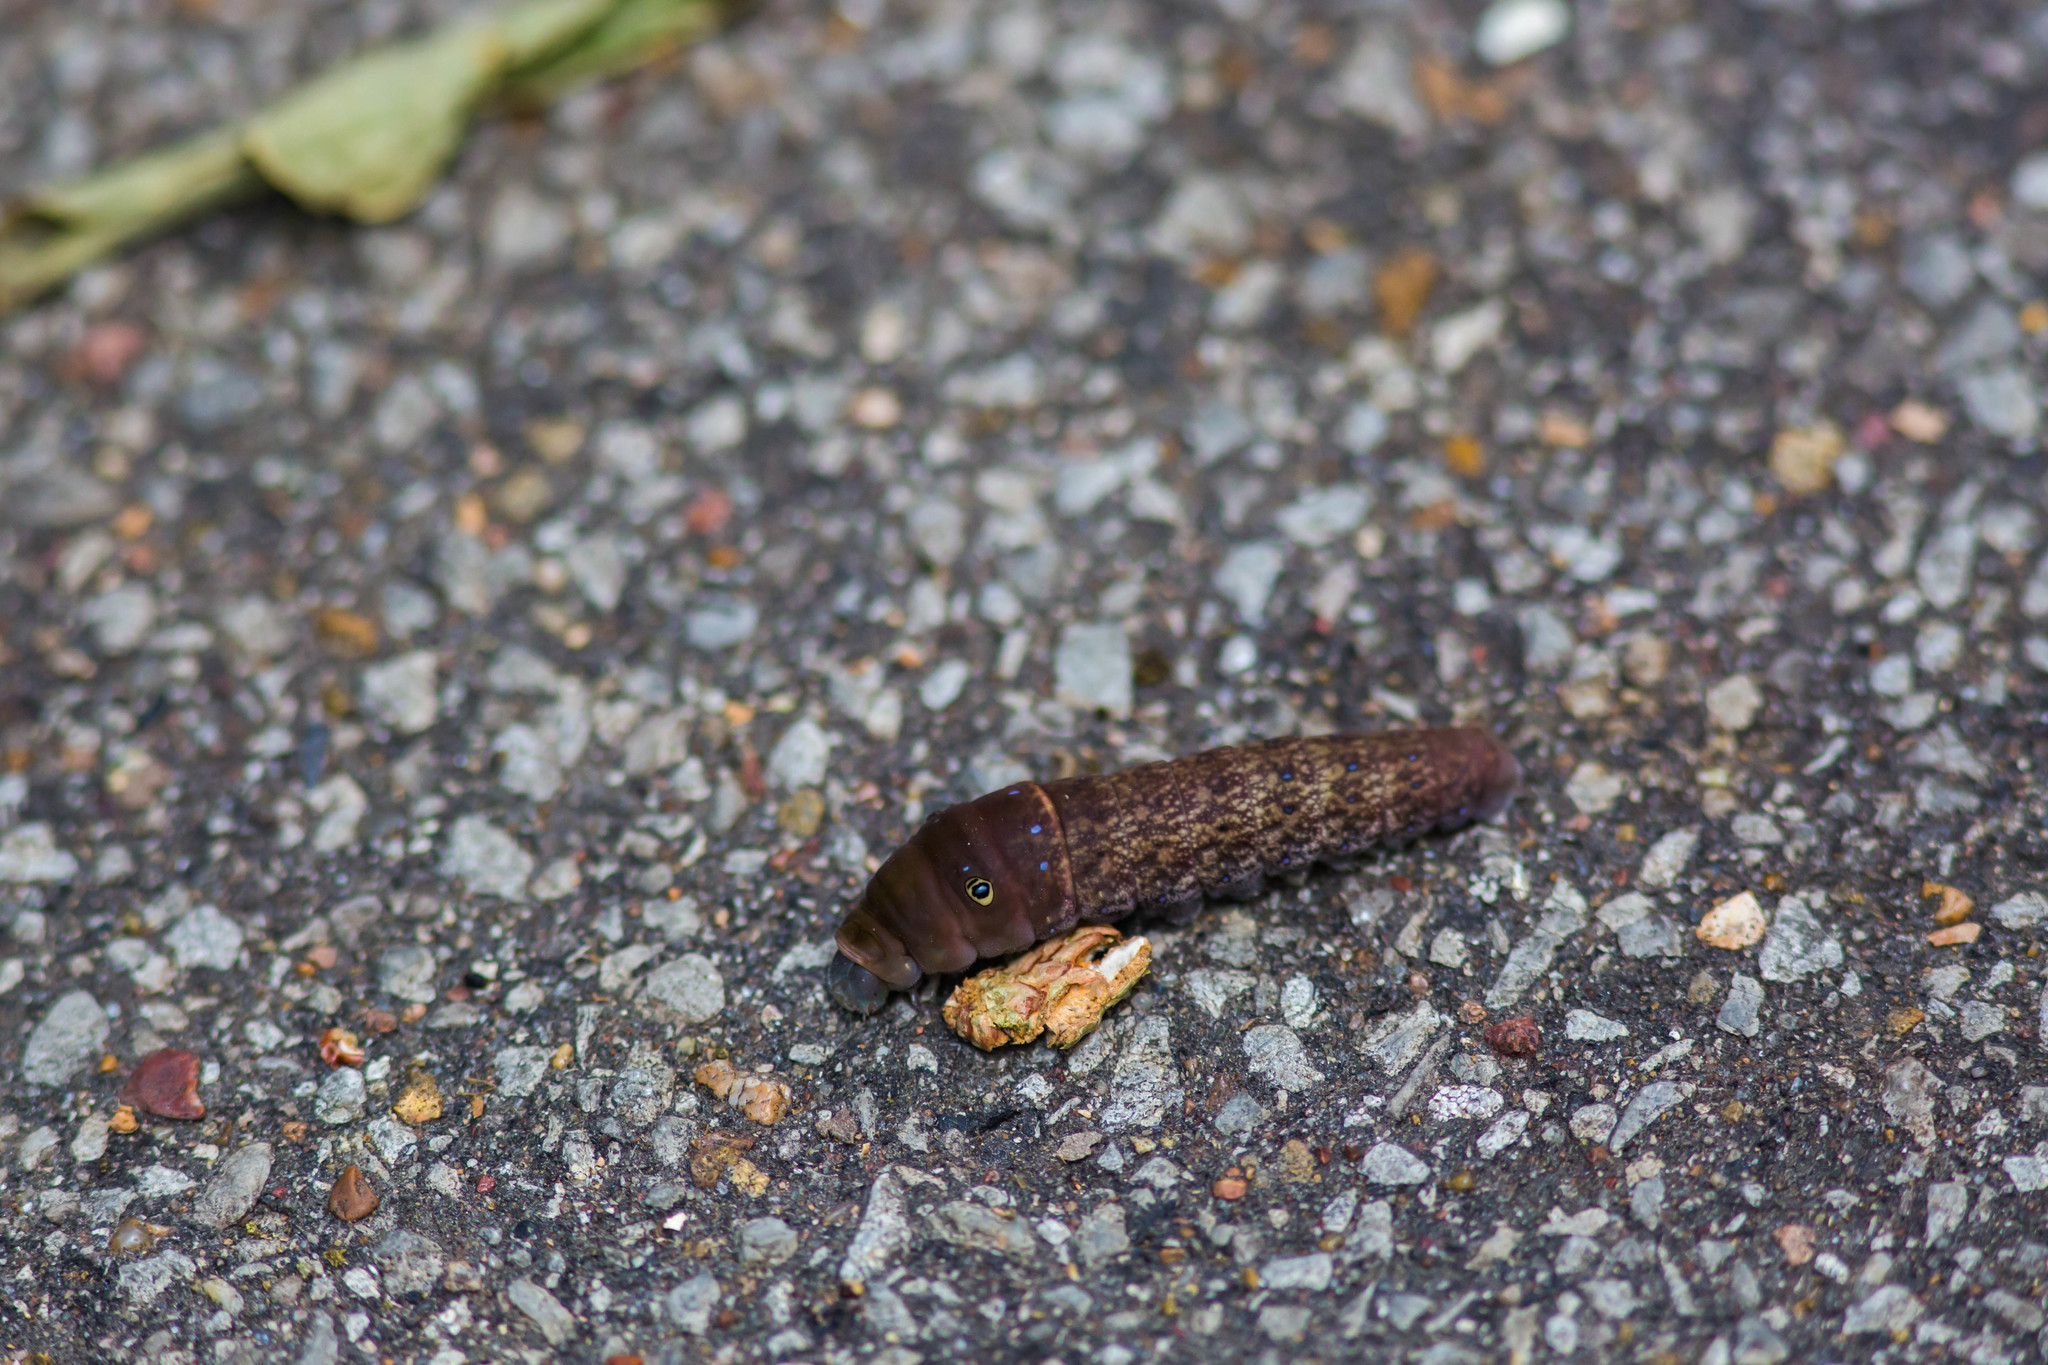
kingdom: Animalia
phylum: Arthropoda
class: Insecta
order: Lepidoptera
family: Papilionidae
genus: Papilio
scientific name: Papilio glaucus
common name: Tiger swallowtail
